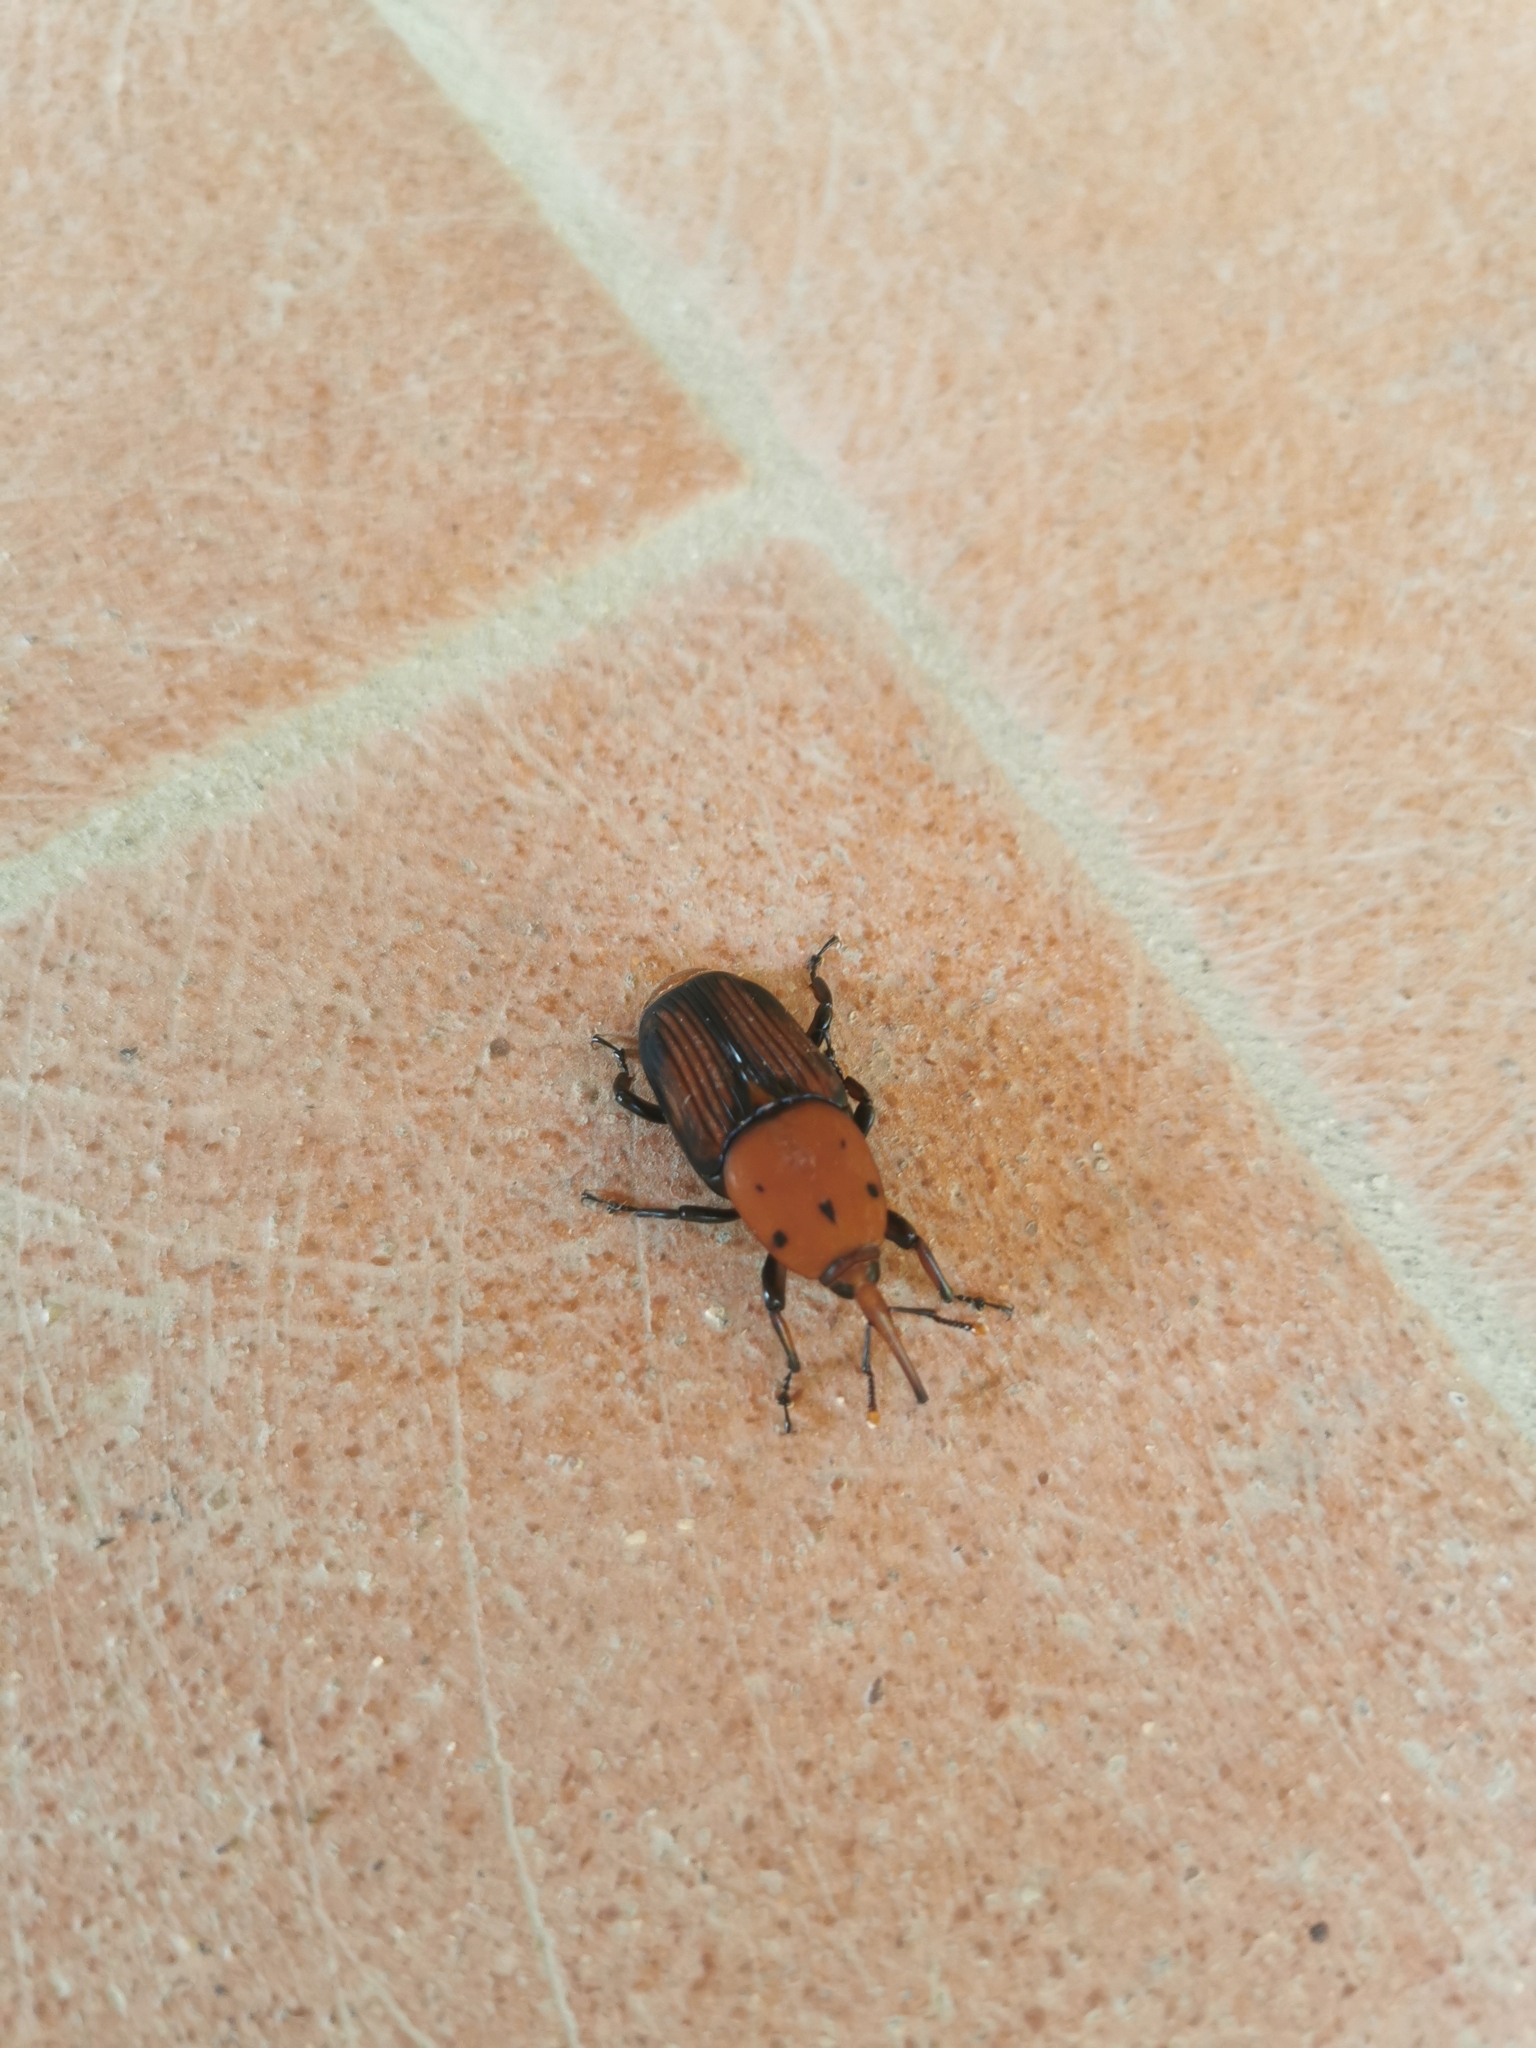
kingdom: Animalia
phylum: Arthropoda
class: Insecta
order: Coleoptera
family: Dryophthoridae
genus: Rhynchophorus
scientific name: Rhynchophorus ferrugineus
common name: Red palm weevil
